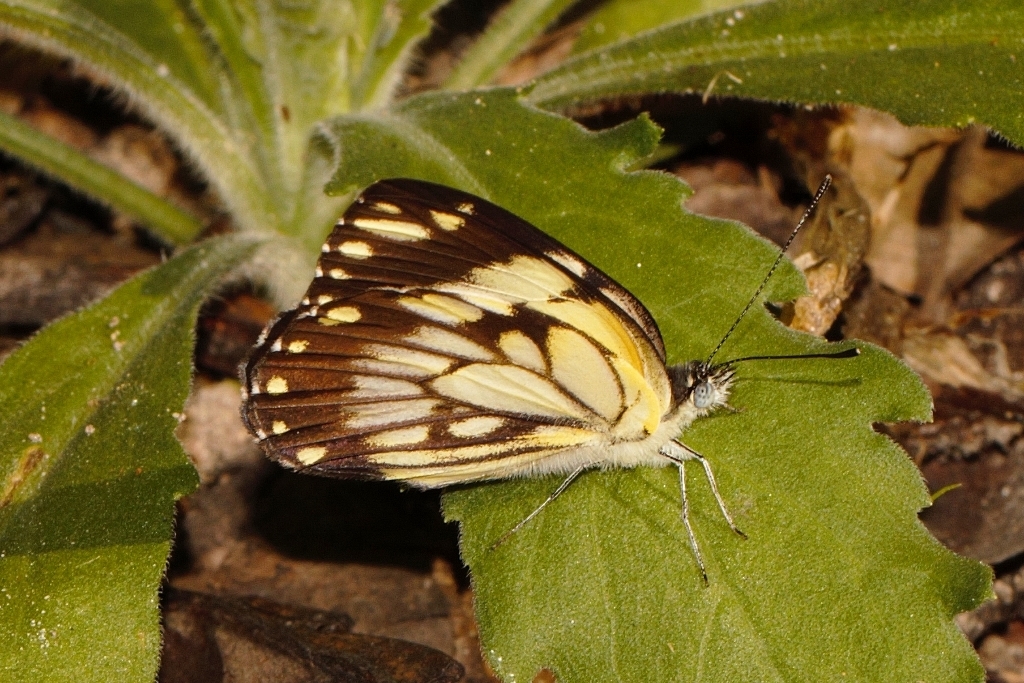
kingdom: Animalia
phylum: Arthropoda
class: Insecta
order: Lepidoptera
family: Pieridae
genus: Belenois
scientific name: Belenois creona
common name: African caper white
